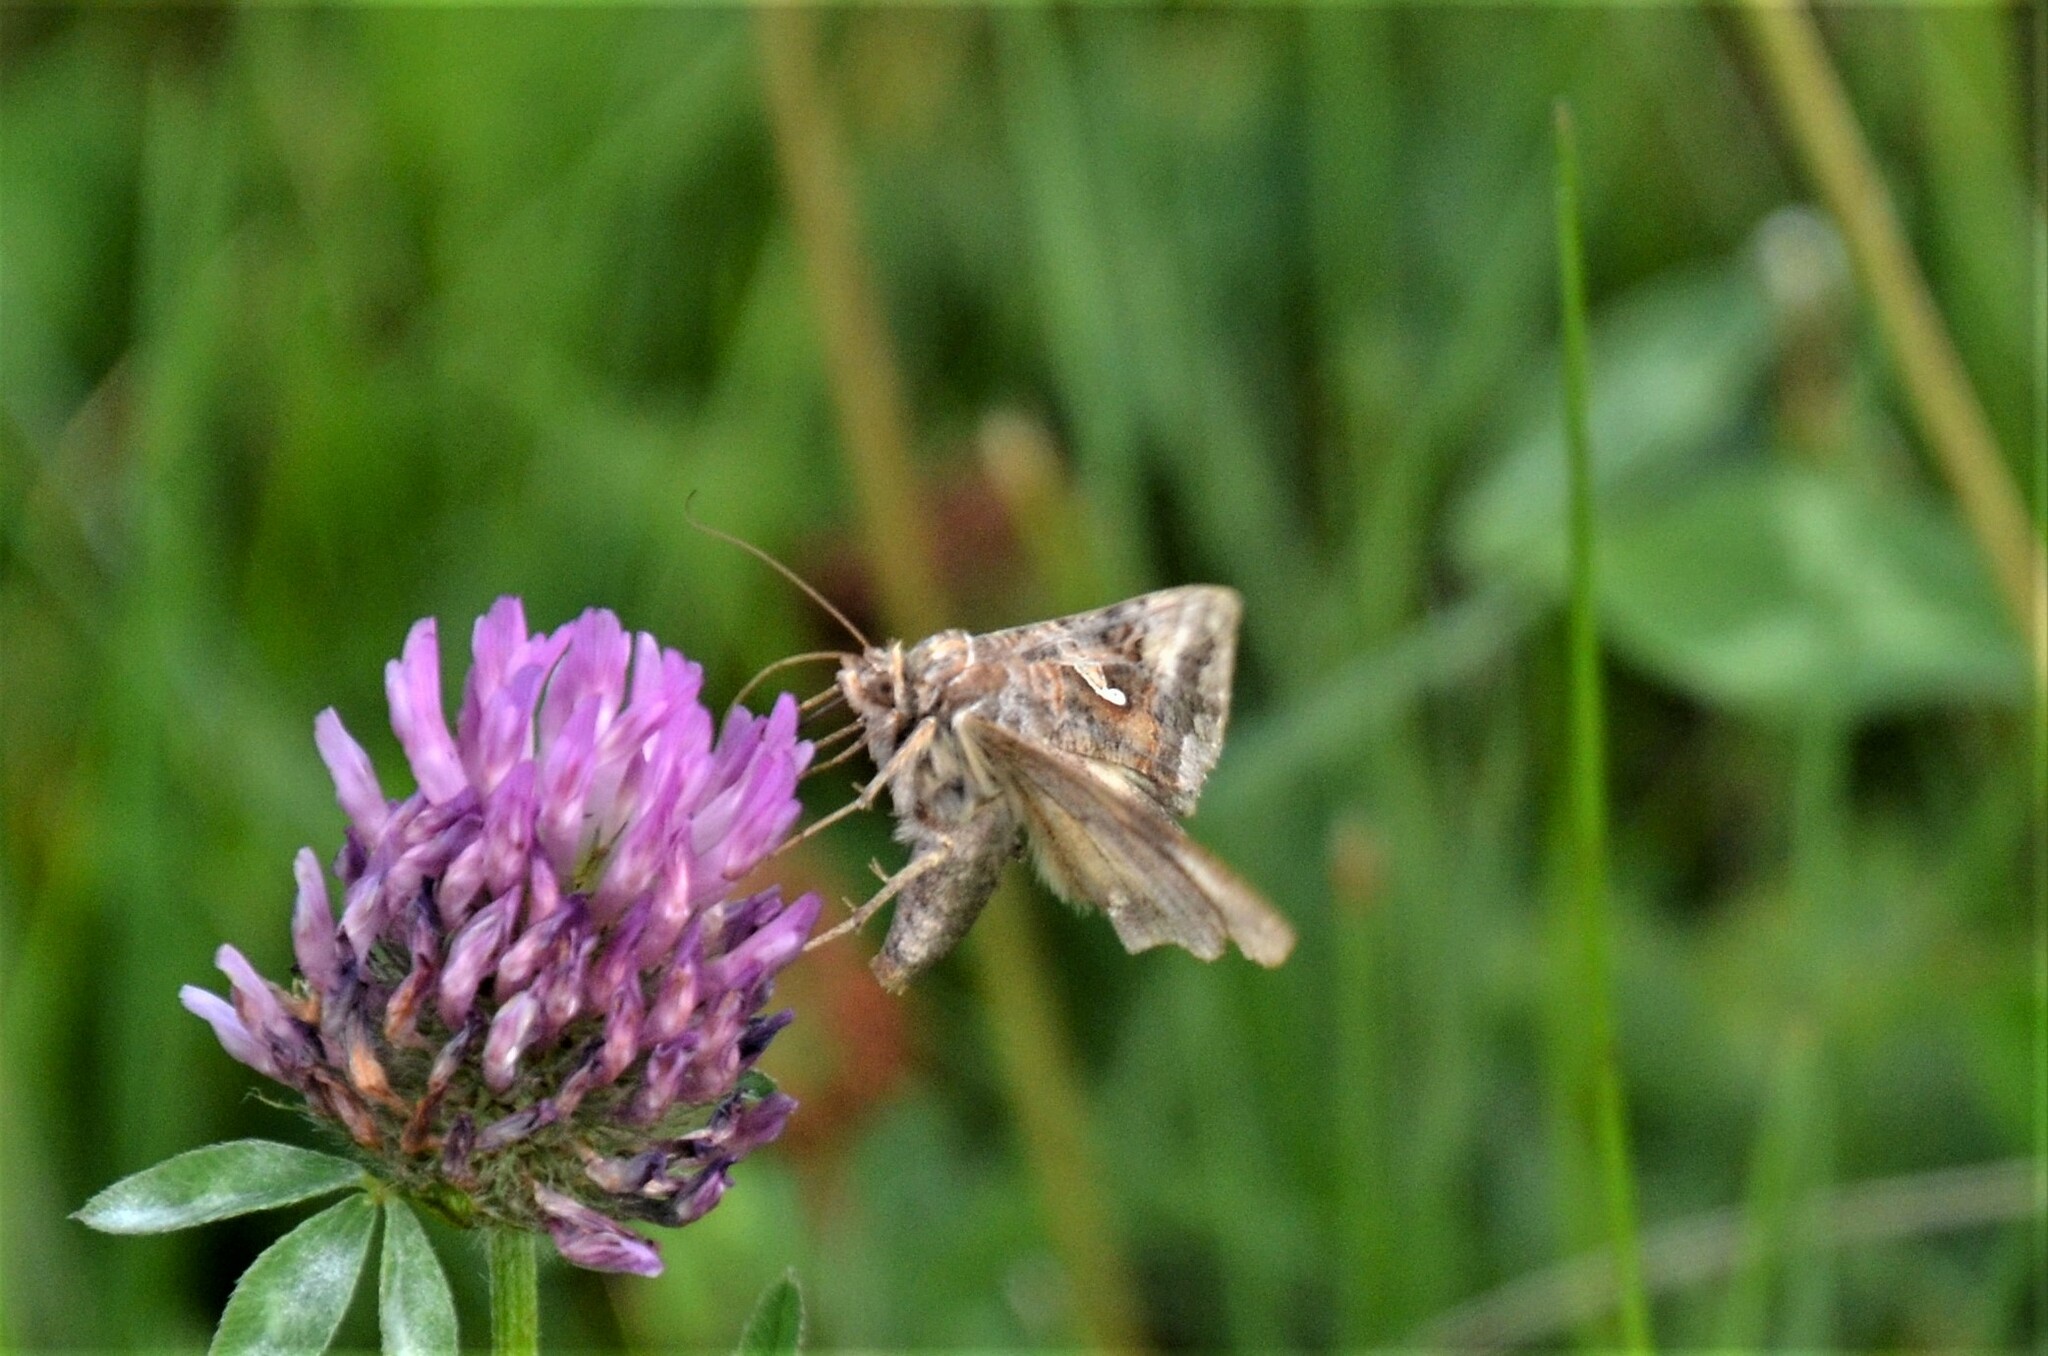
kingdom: Animalia
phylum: Arthropoda
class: Insecta
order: Lepidoptera
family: Noctuidae
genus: Autographa
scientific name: Autographa gamma
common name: Silver y
